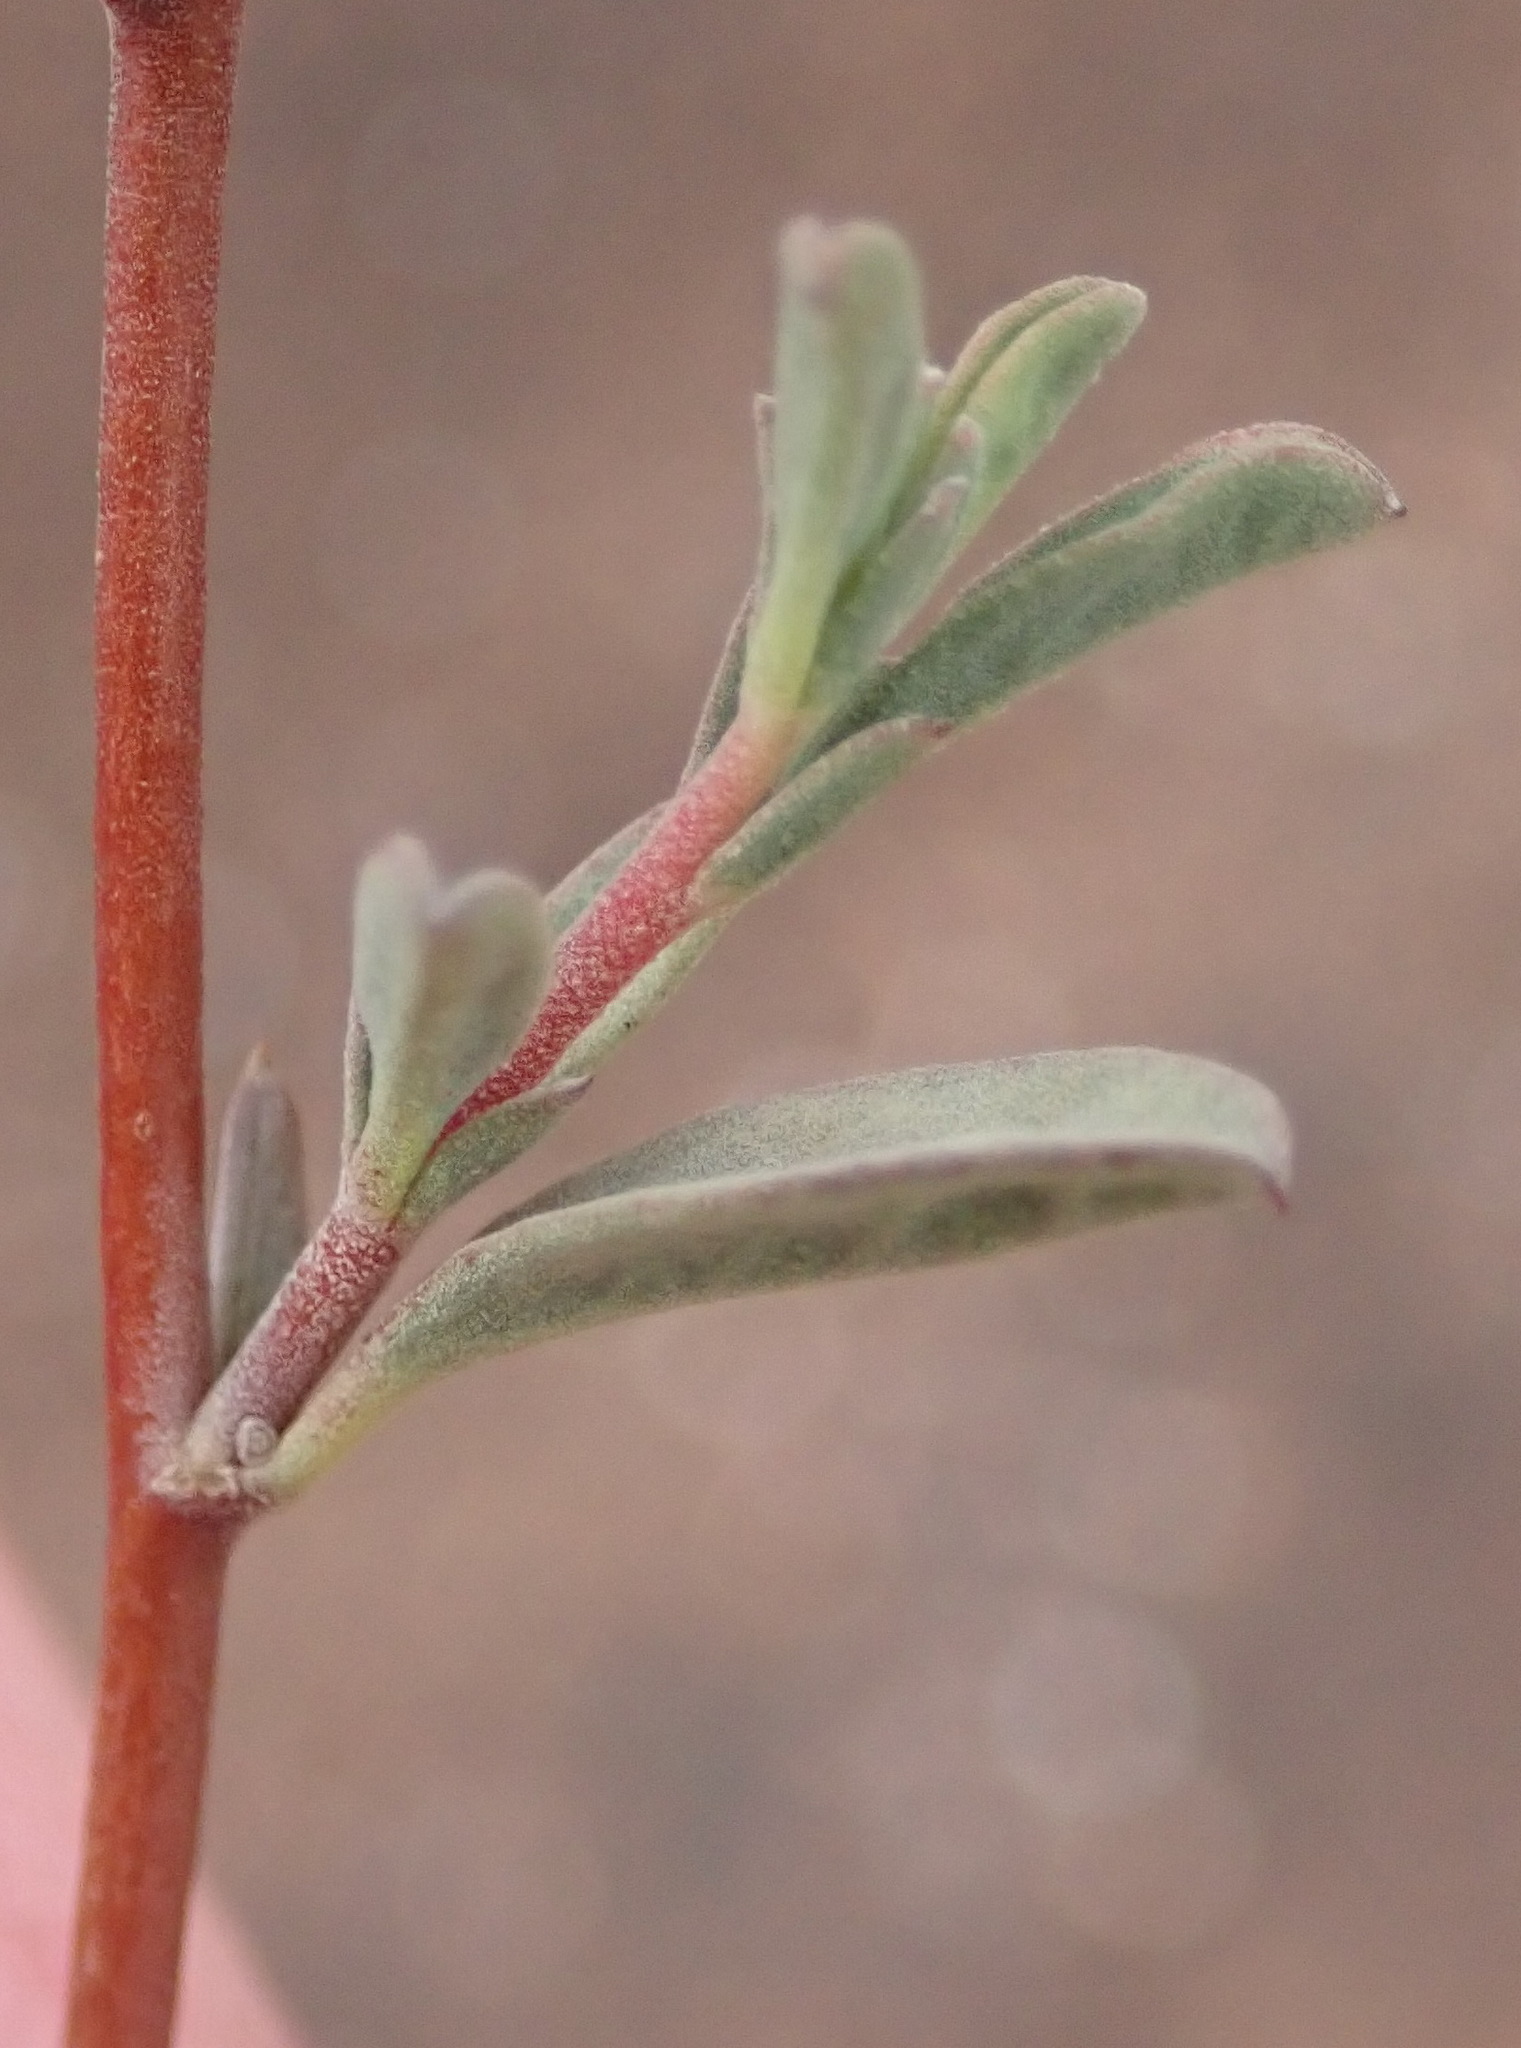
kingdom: Plantae
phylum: Tracheophyta
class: Magnoliopsida
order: Malvales
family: Malvaceae
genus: Hermannia
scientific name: Hermannia diversistipula
